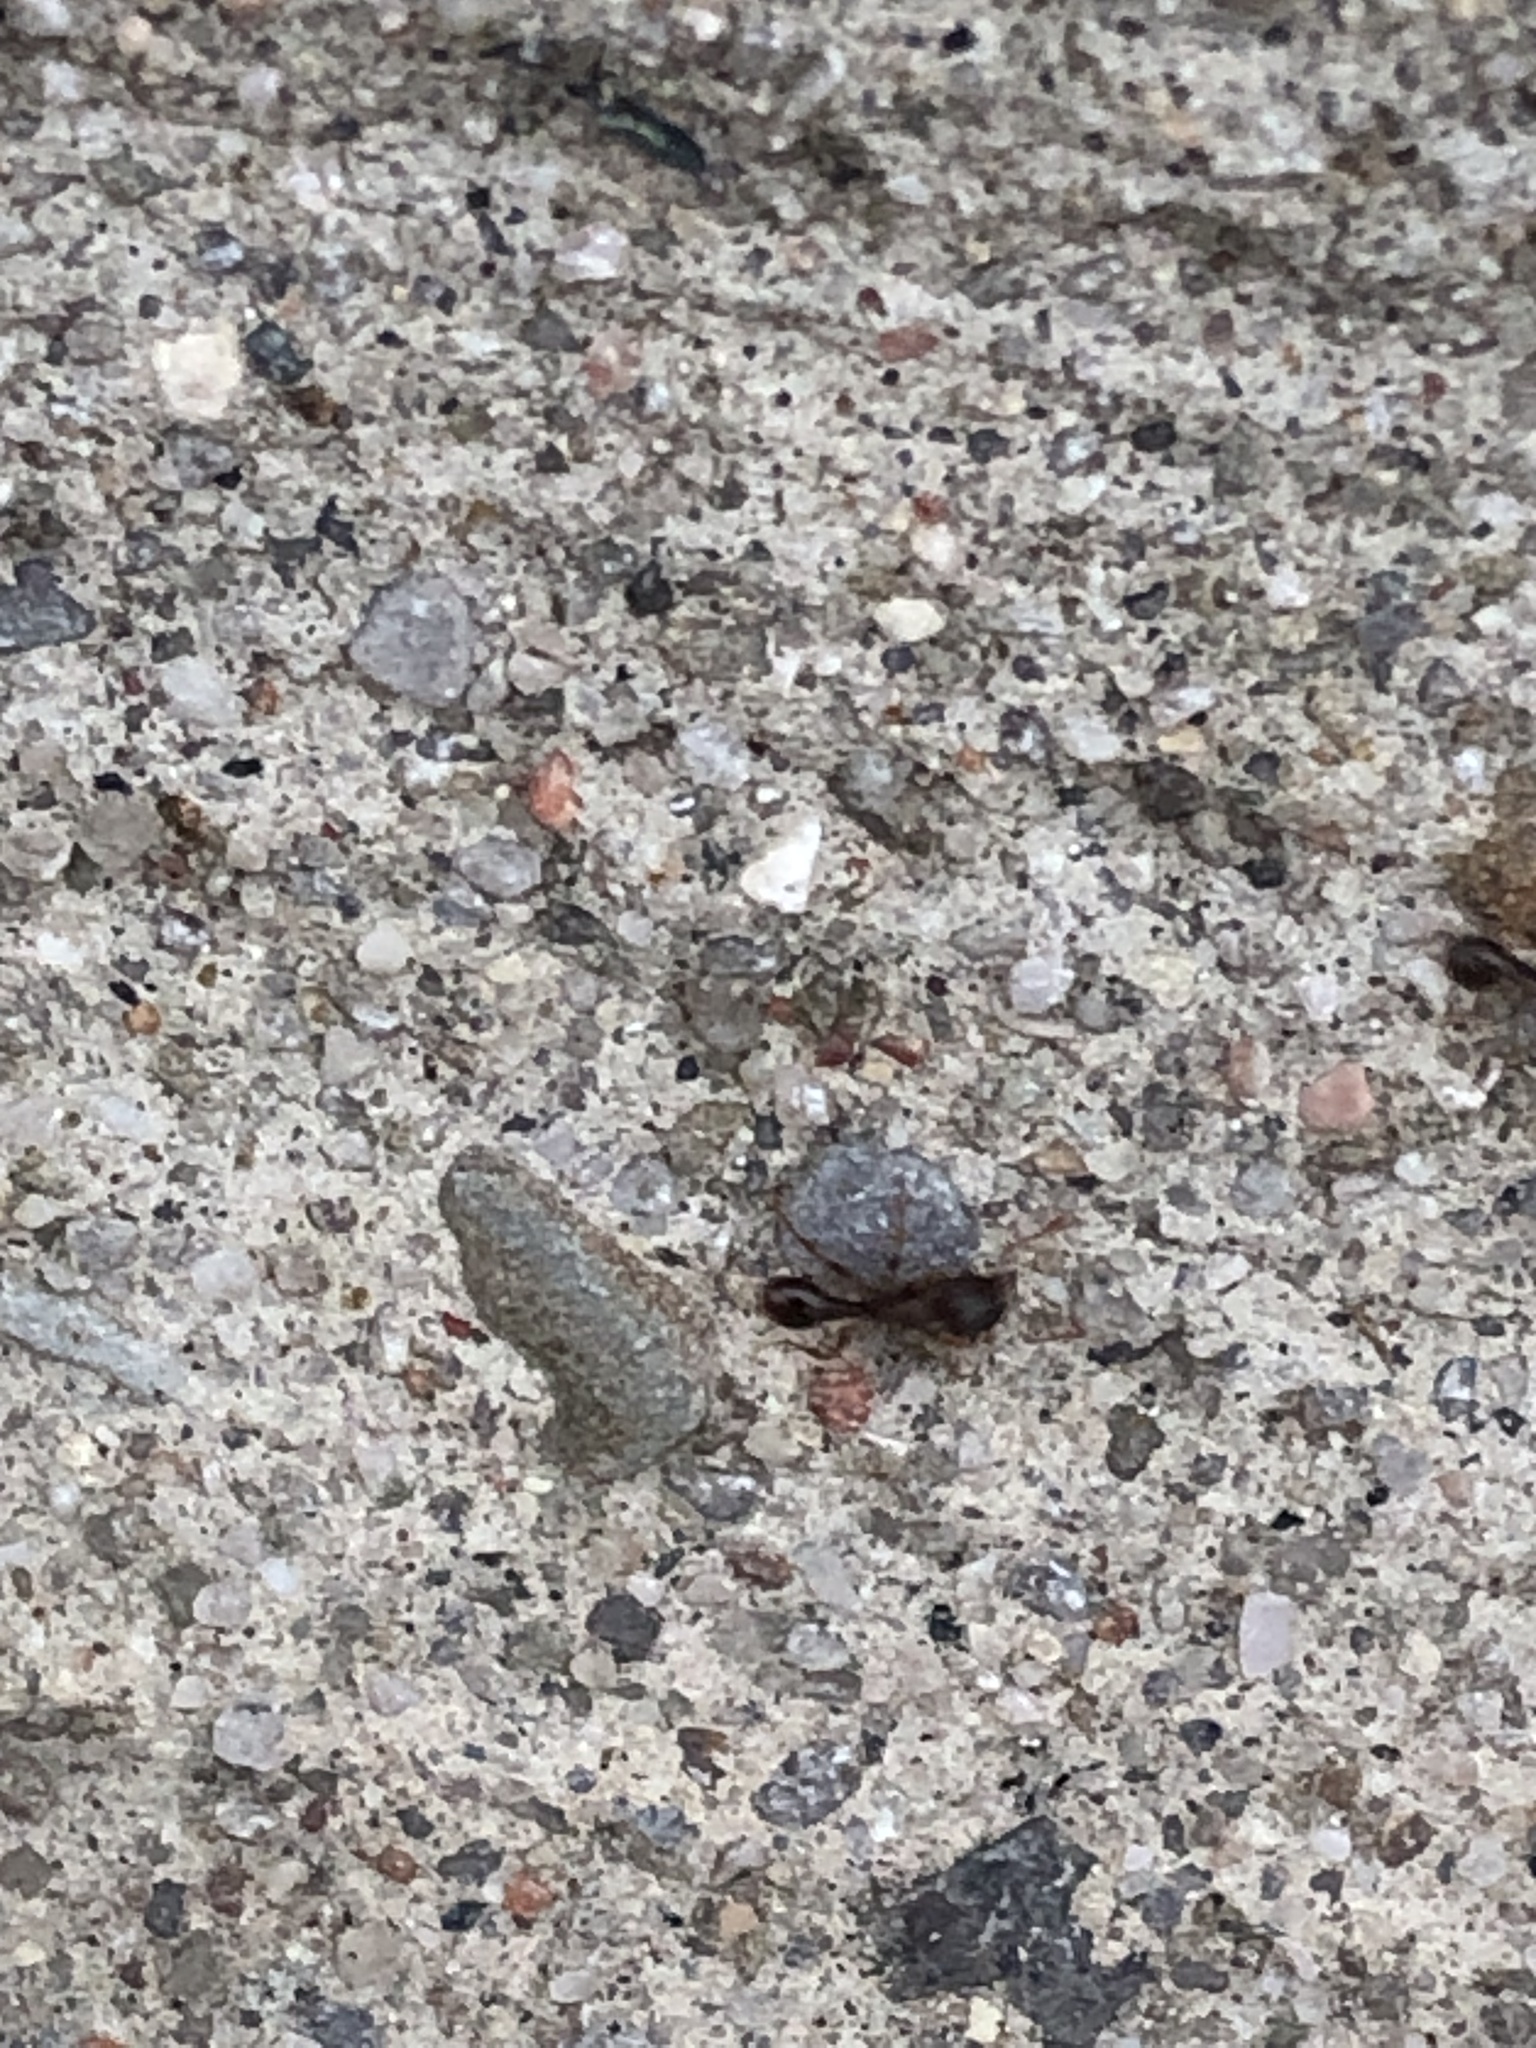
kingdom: Animalia
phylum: Arthropoda
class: Insecta
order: Hymenoptera
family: Formicidae
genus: Tetramorium
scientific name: Tetramorium immigrans
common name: Pavement ant
